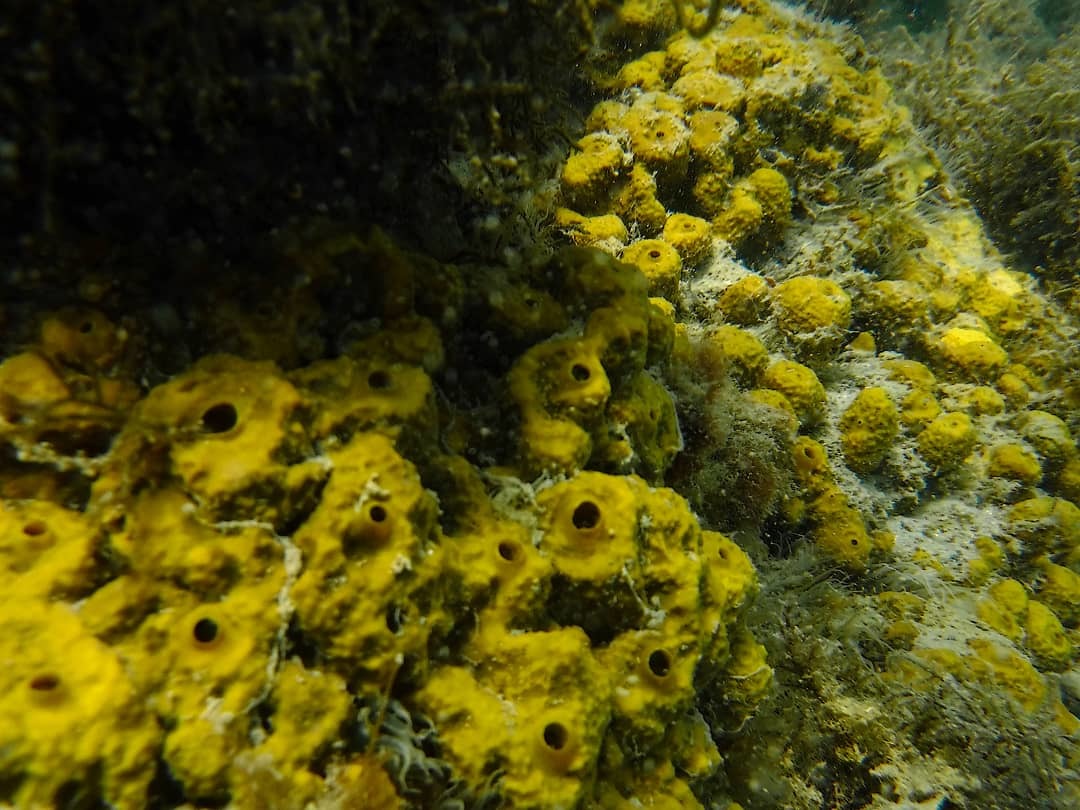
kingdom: Animalia
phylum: Porifera
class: Demospongiae
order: Verongiida
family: Aplysinidae
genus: Aplysina
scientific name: Aplysina aerophoba
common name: Aureate sponge
